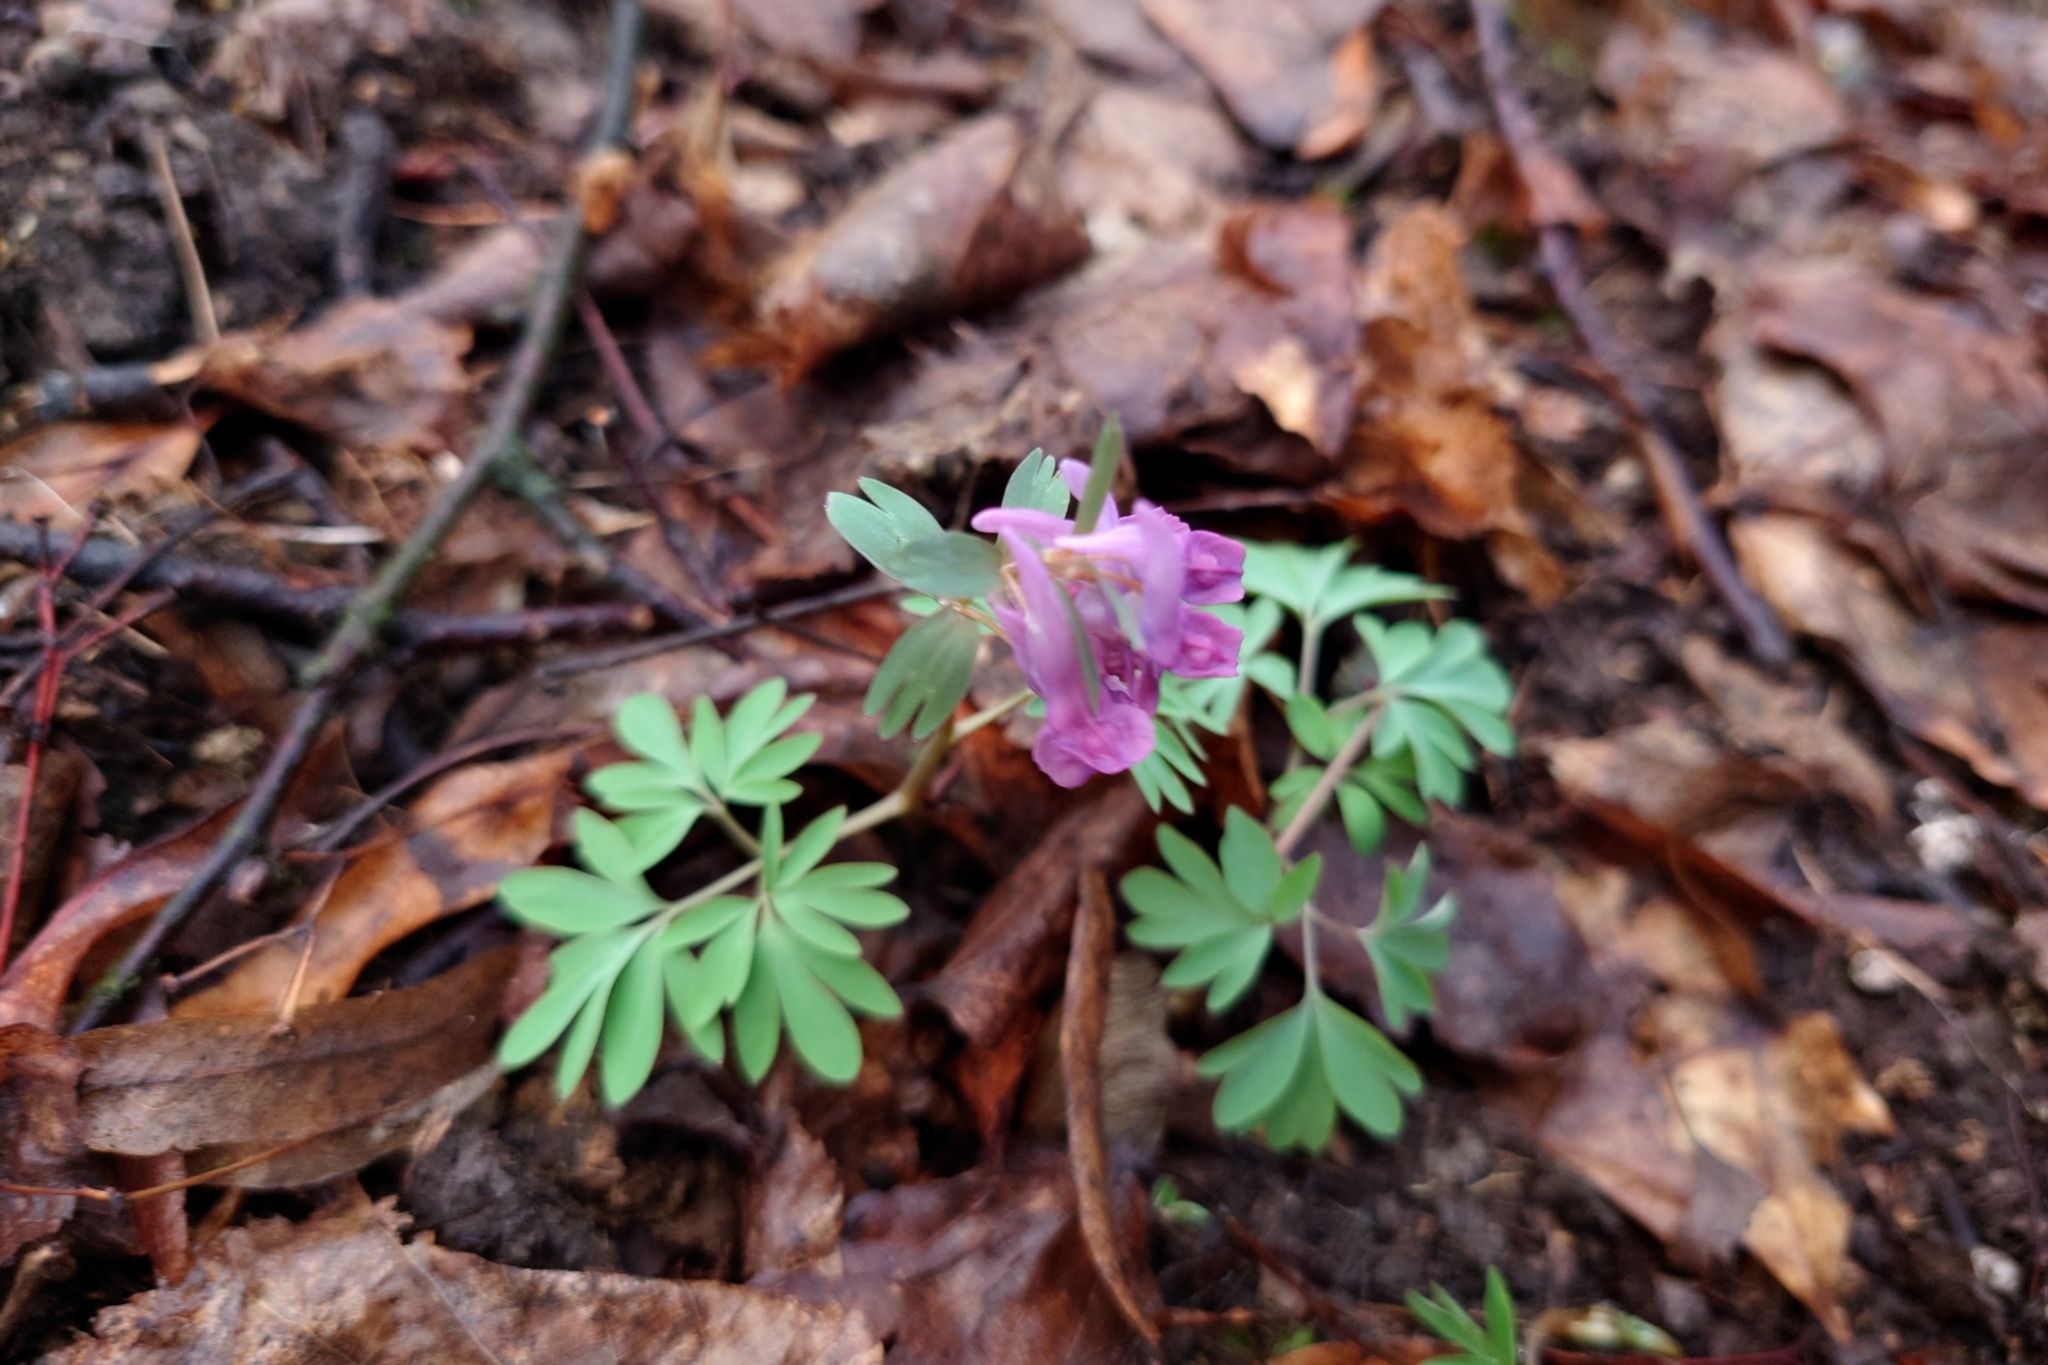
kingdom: Plantae
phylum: Tracheophyta
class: Magnoliopsida
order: Ranunculales
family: Papaveraceae
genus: Corydalis
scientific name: Corydalis solida
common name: Bird-in-a-bush
